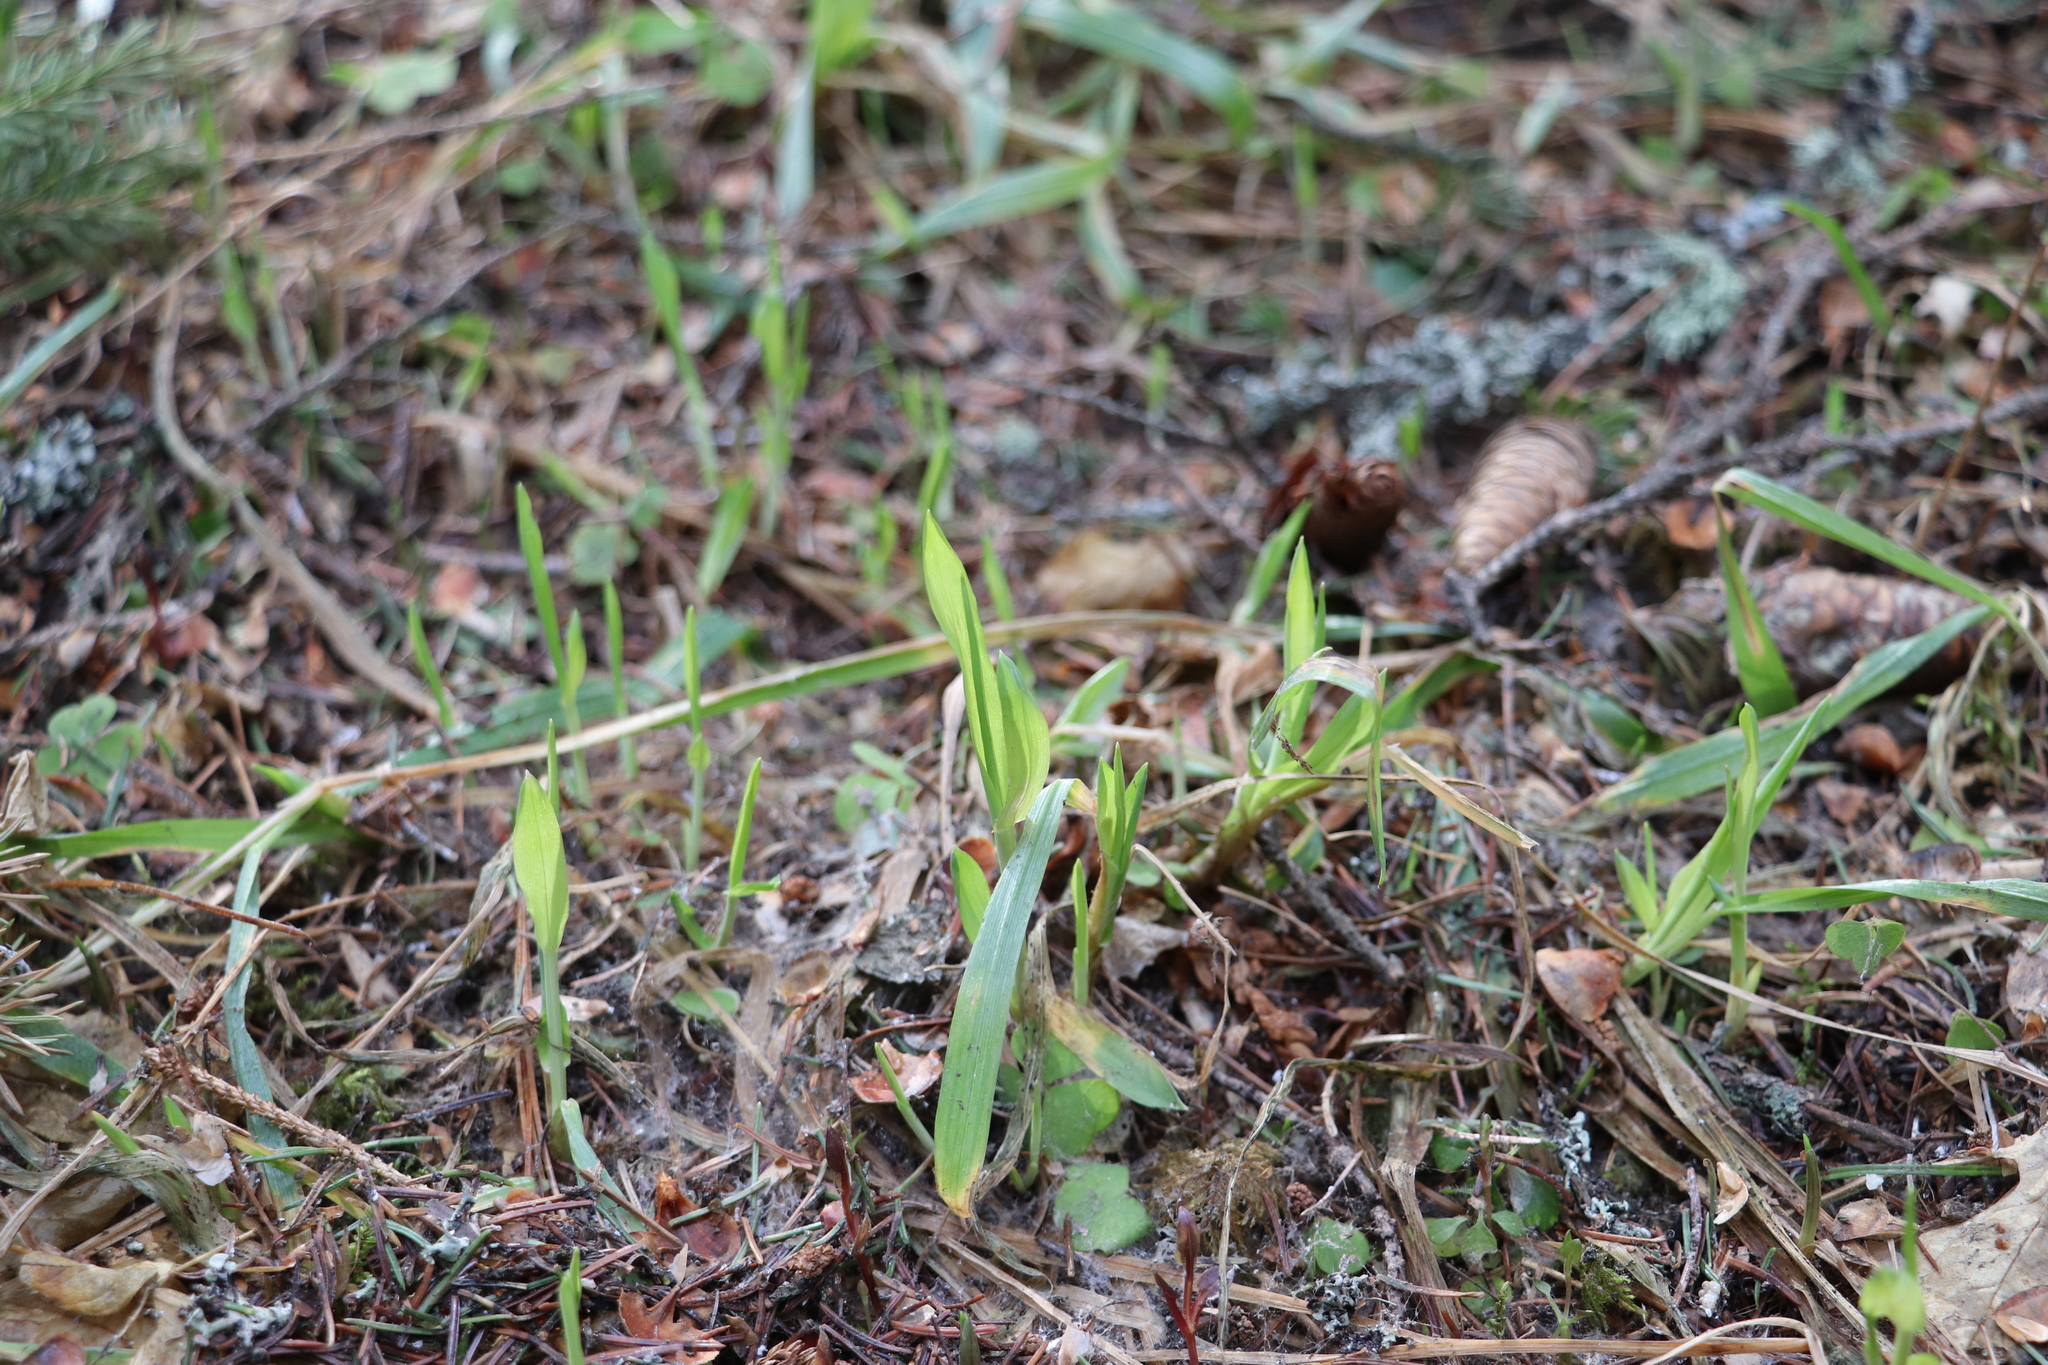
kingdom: Plantae
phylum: Tracheophyta
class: Liliopsida
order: Poales
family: Poaceae
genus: Milium
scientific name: Milium effusum
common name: Wood millet
